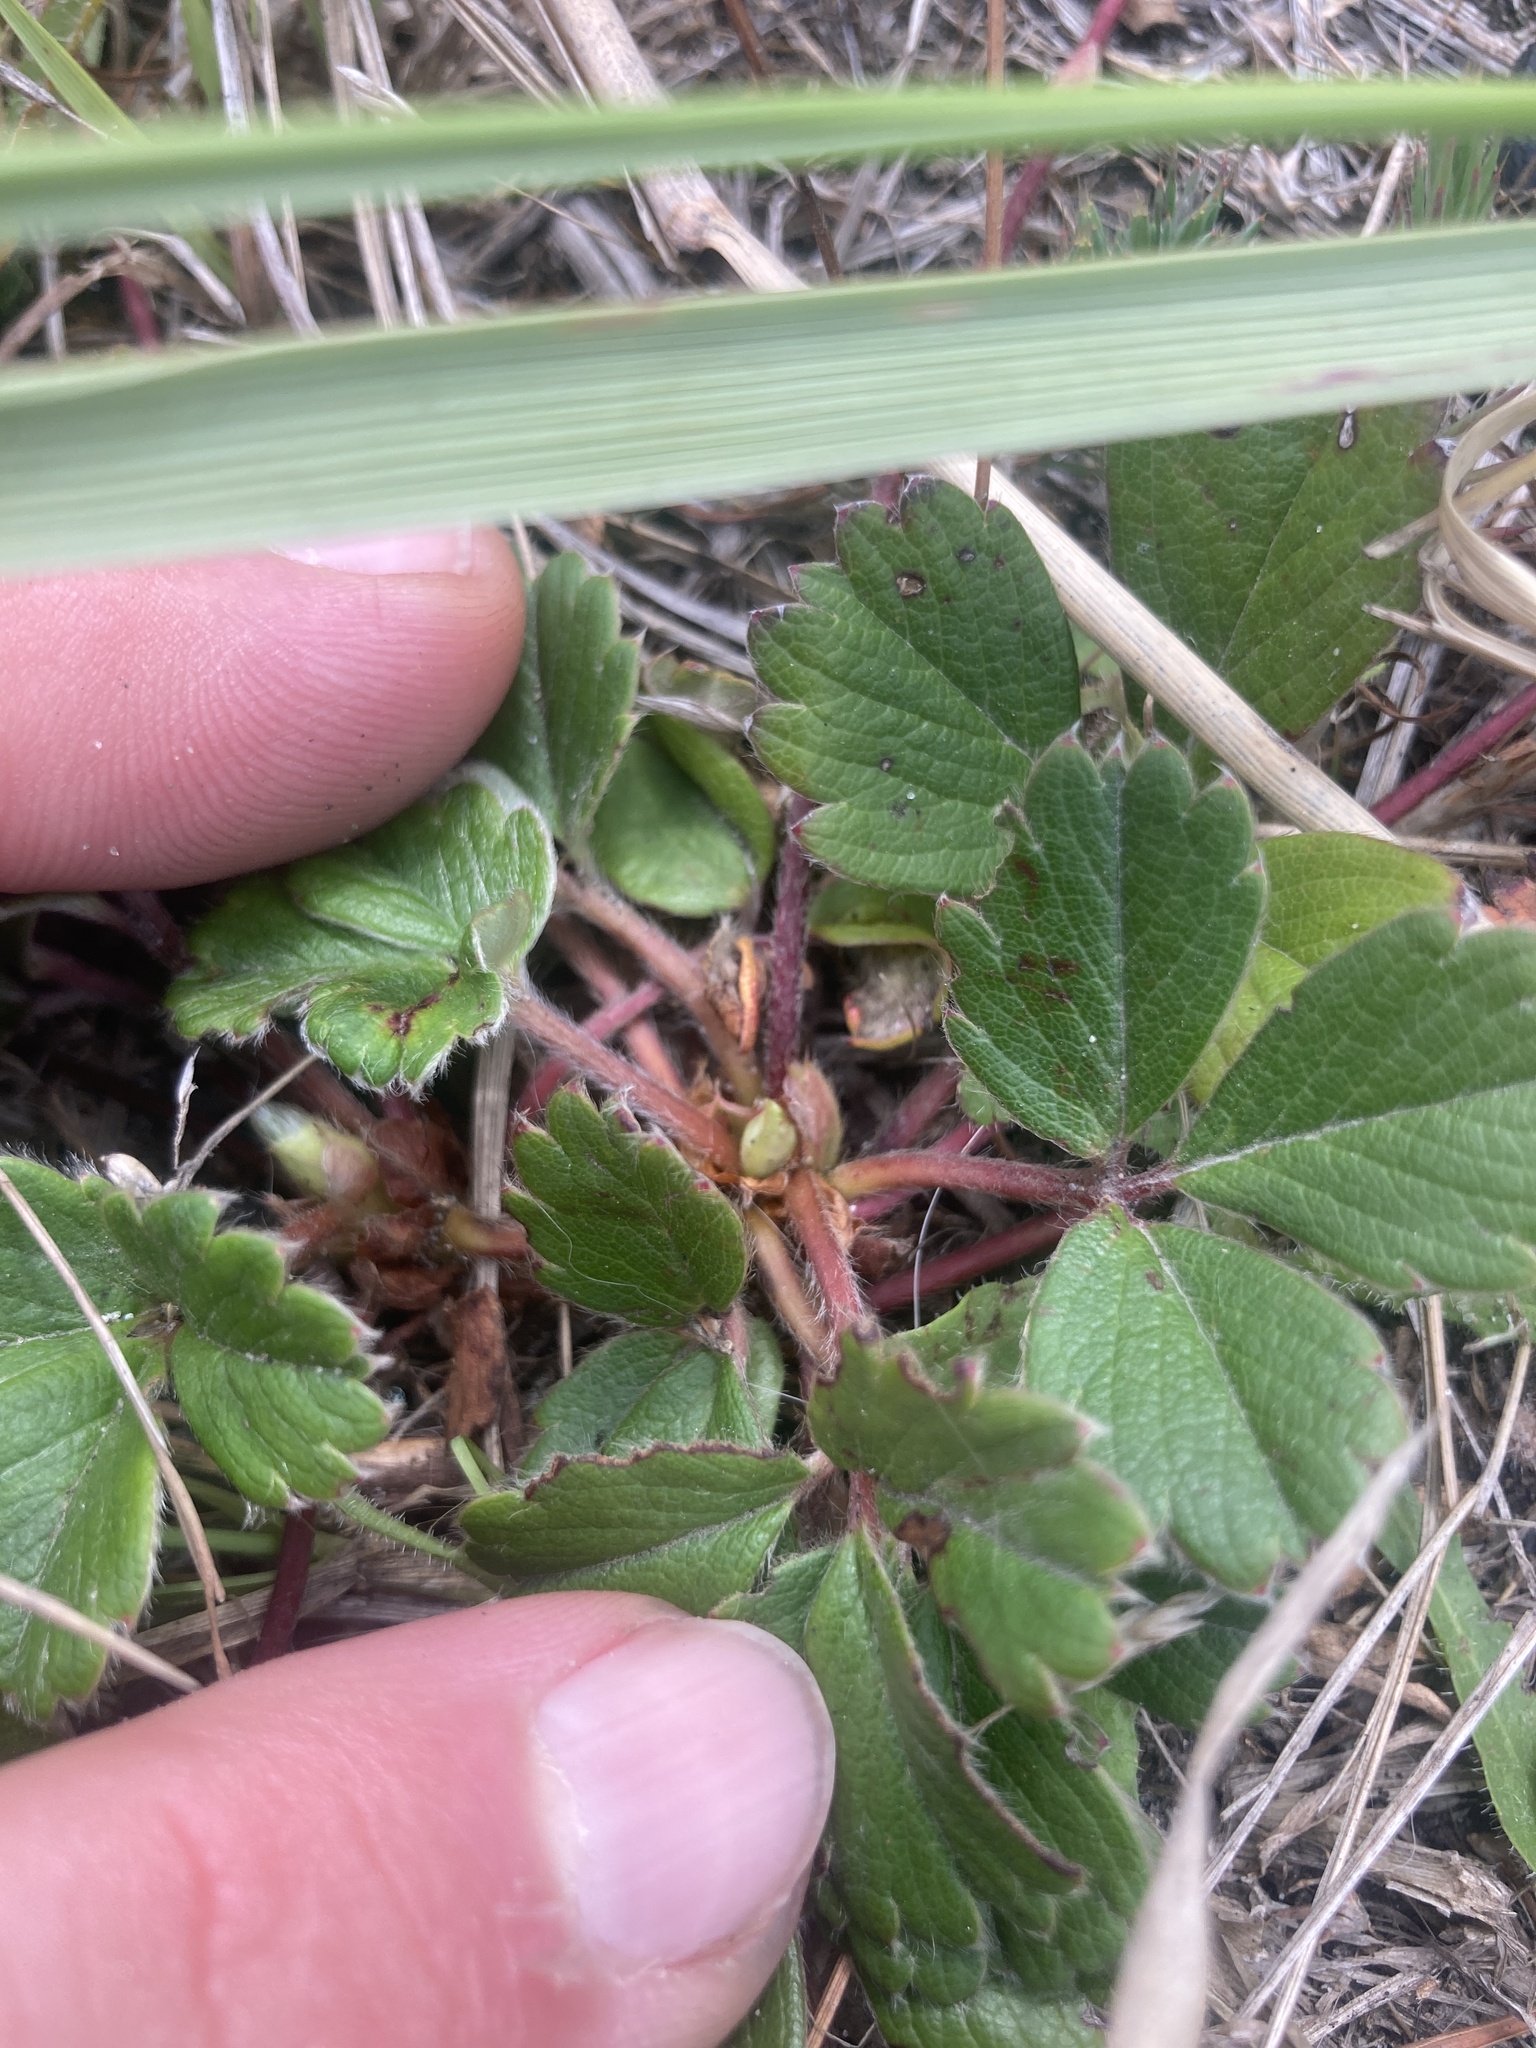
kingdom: Plantae
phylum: Tracheophyta
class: Magnoliopsida
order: Rosales
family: Rosaceae
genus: Fragaria
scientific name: Fragaria chiloensis
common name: Beach strawberry
